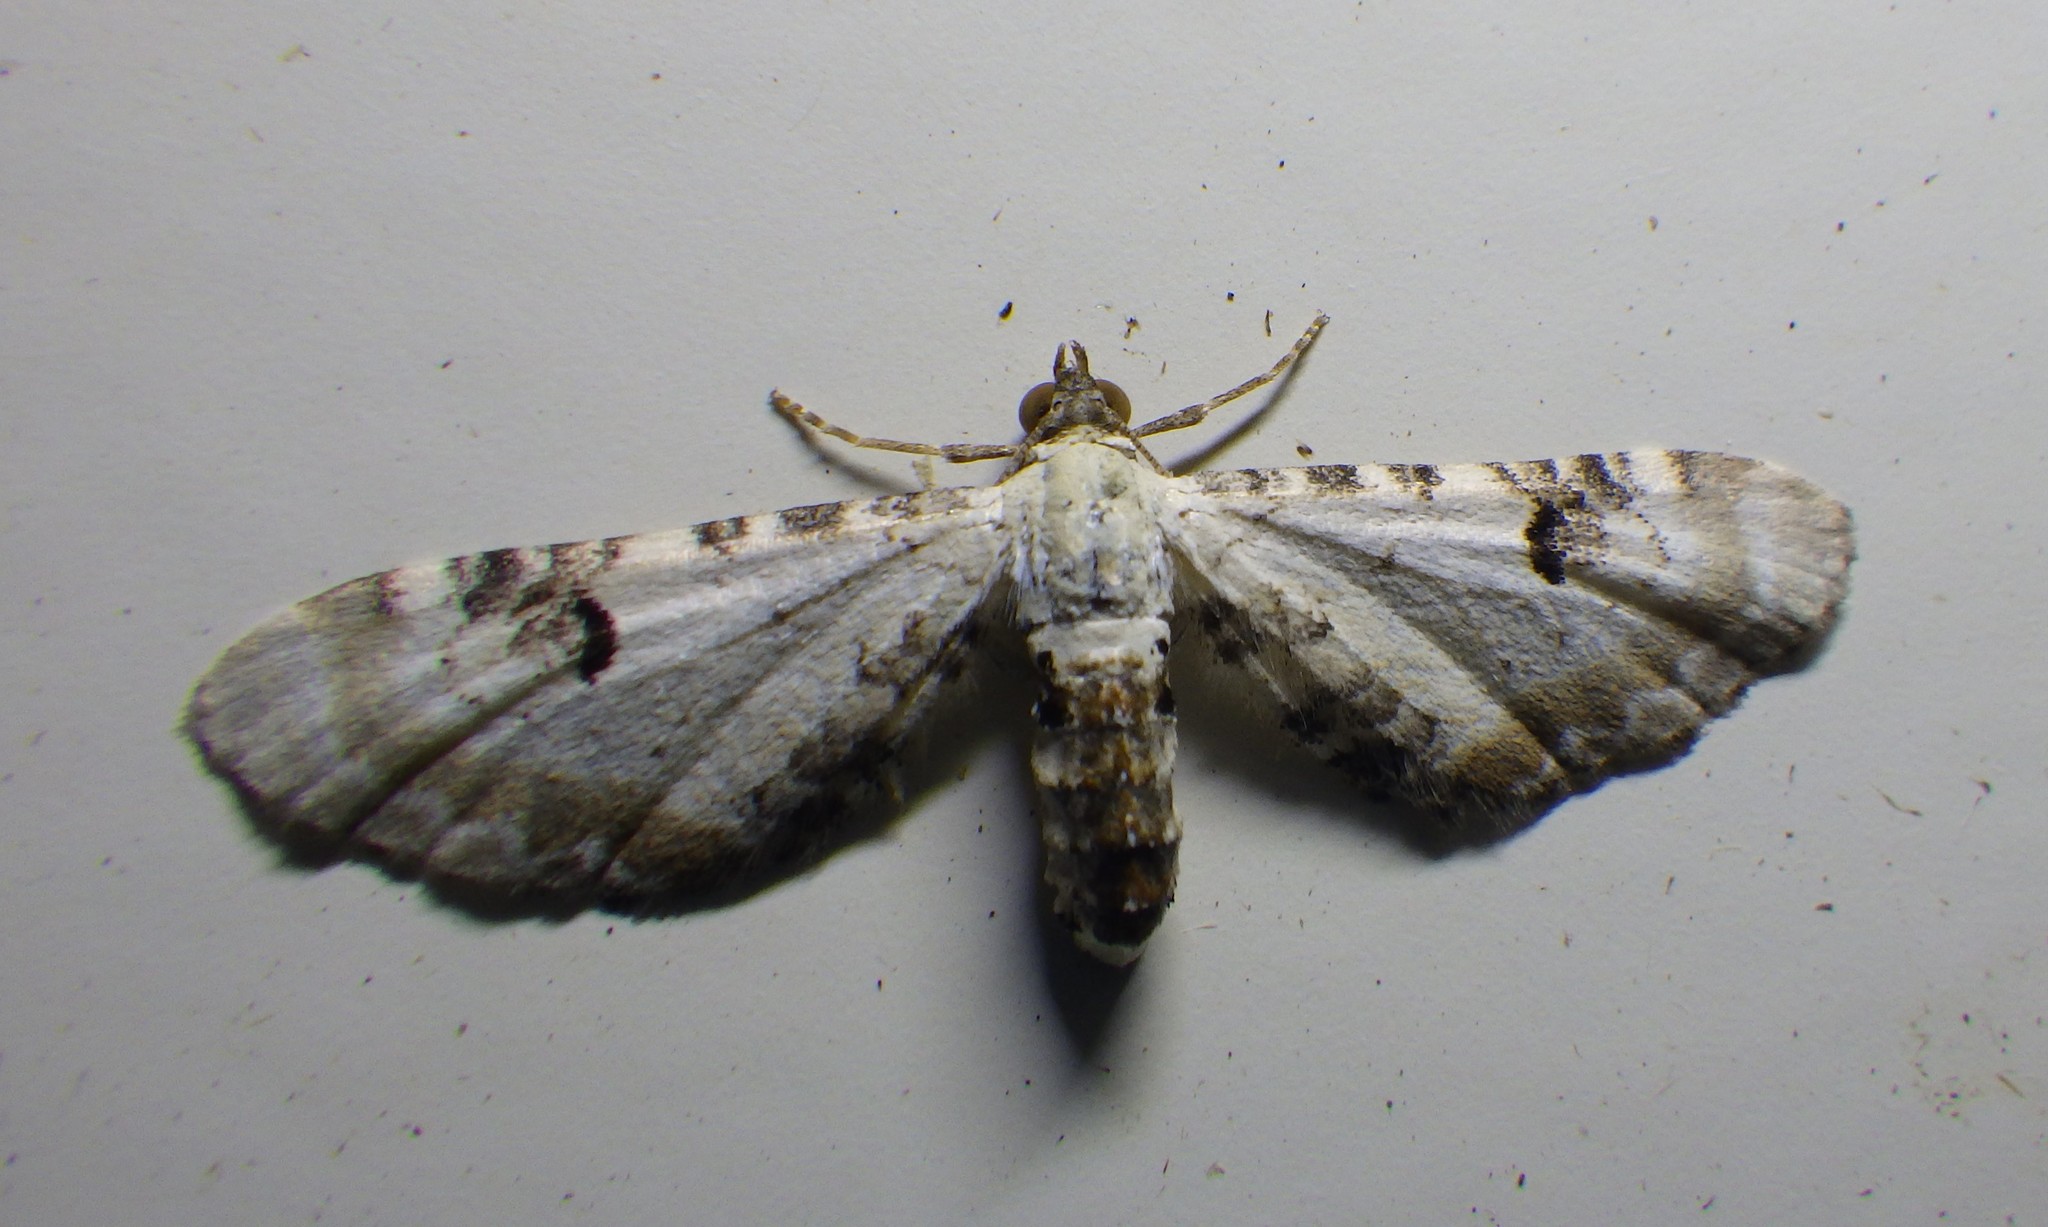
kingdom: Animalia
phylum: Arthropoda
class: Insecta
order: Lepidoptera
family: Geometridae
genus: Eupithecia
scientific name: Eupithecia centaureata
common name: Lime-speck pug
